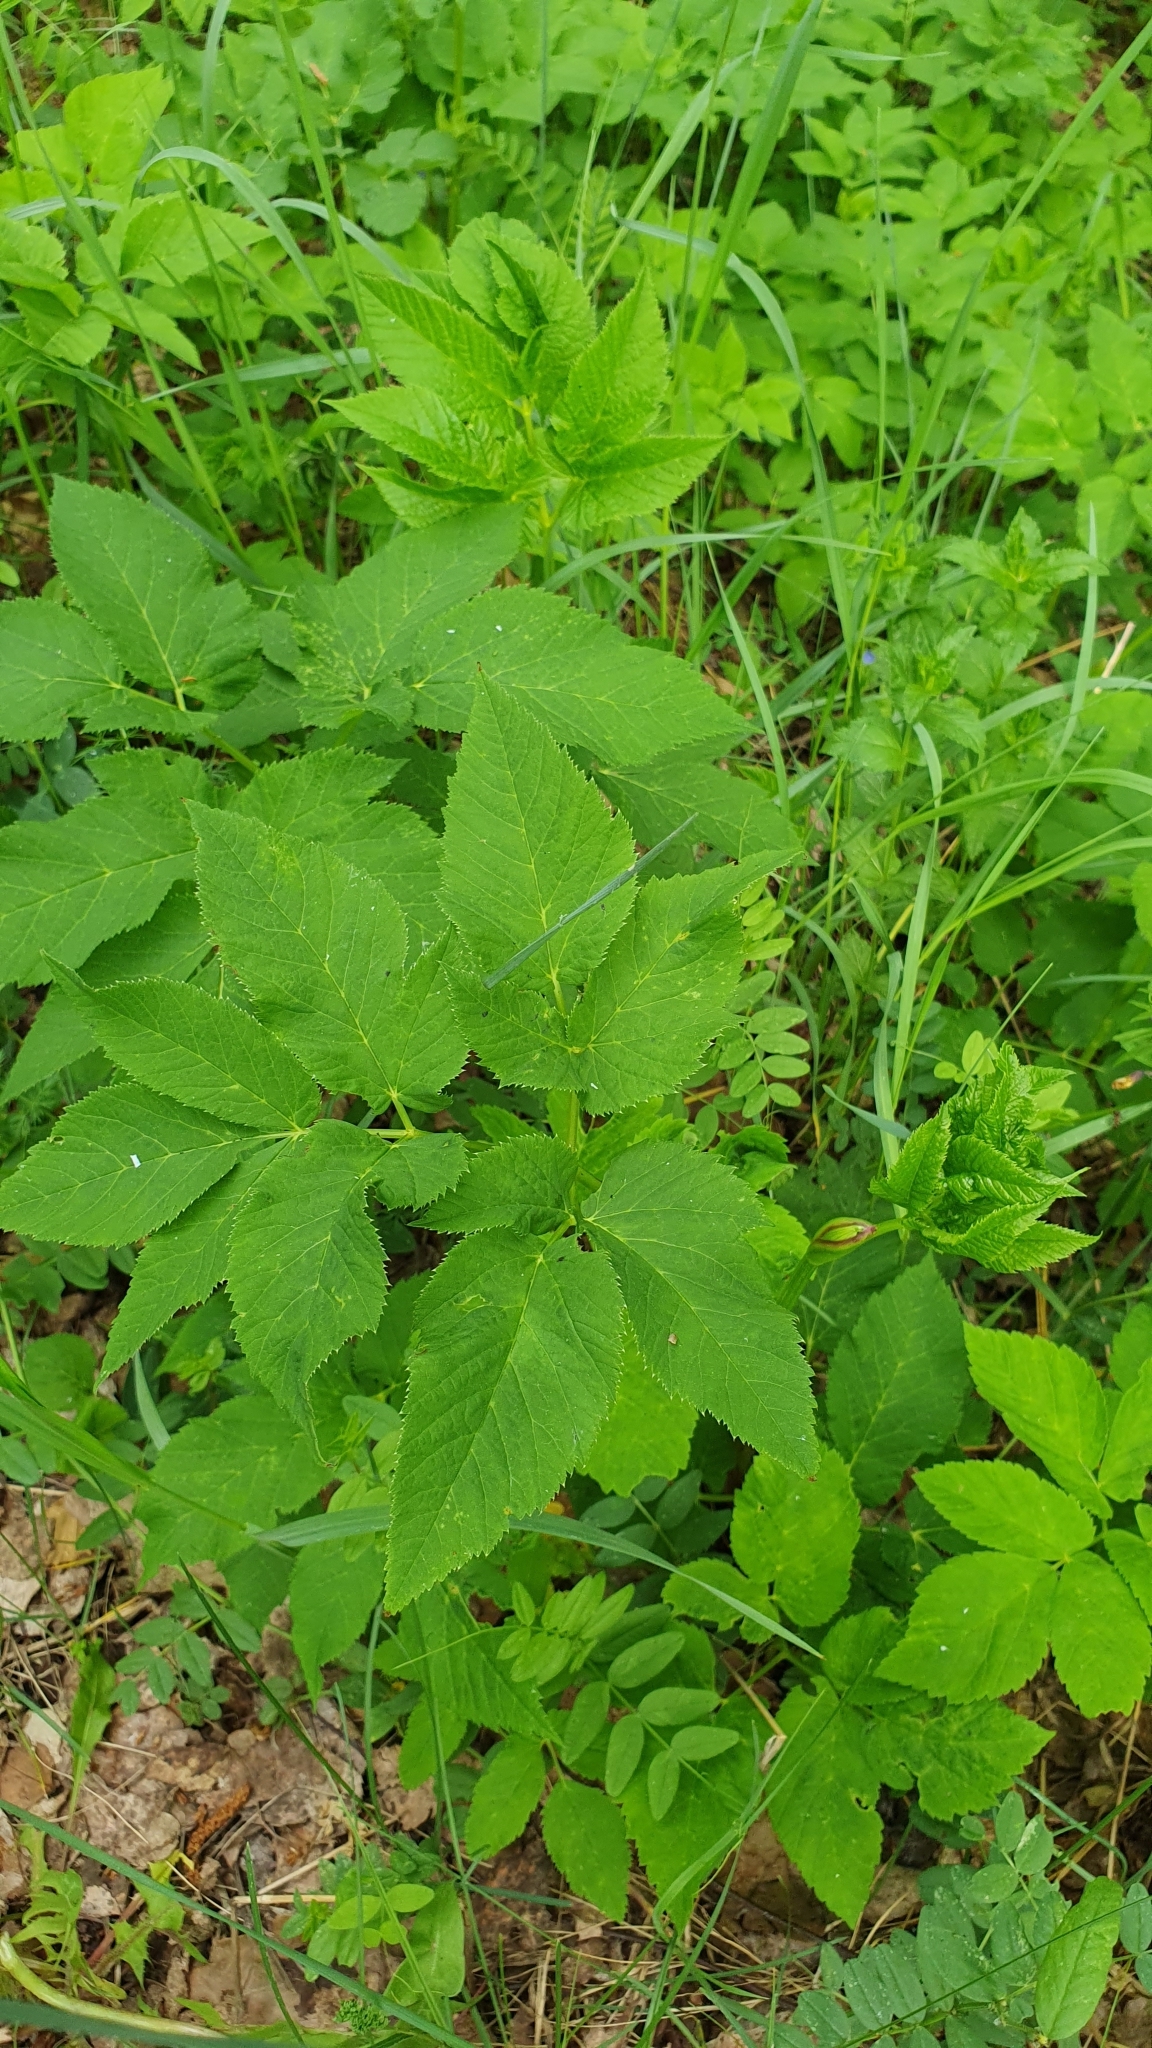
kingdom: Plantae
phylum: Tracheophyta
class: Magnoliopsida
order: Apiales
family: Apiaceae
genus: Aegopodium
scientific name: Aegopodium podagraria
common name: Ground-elder
